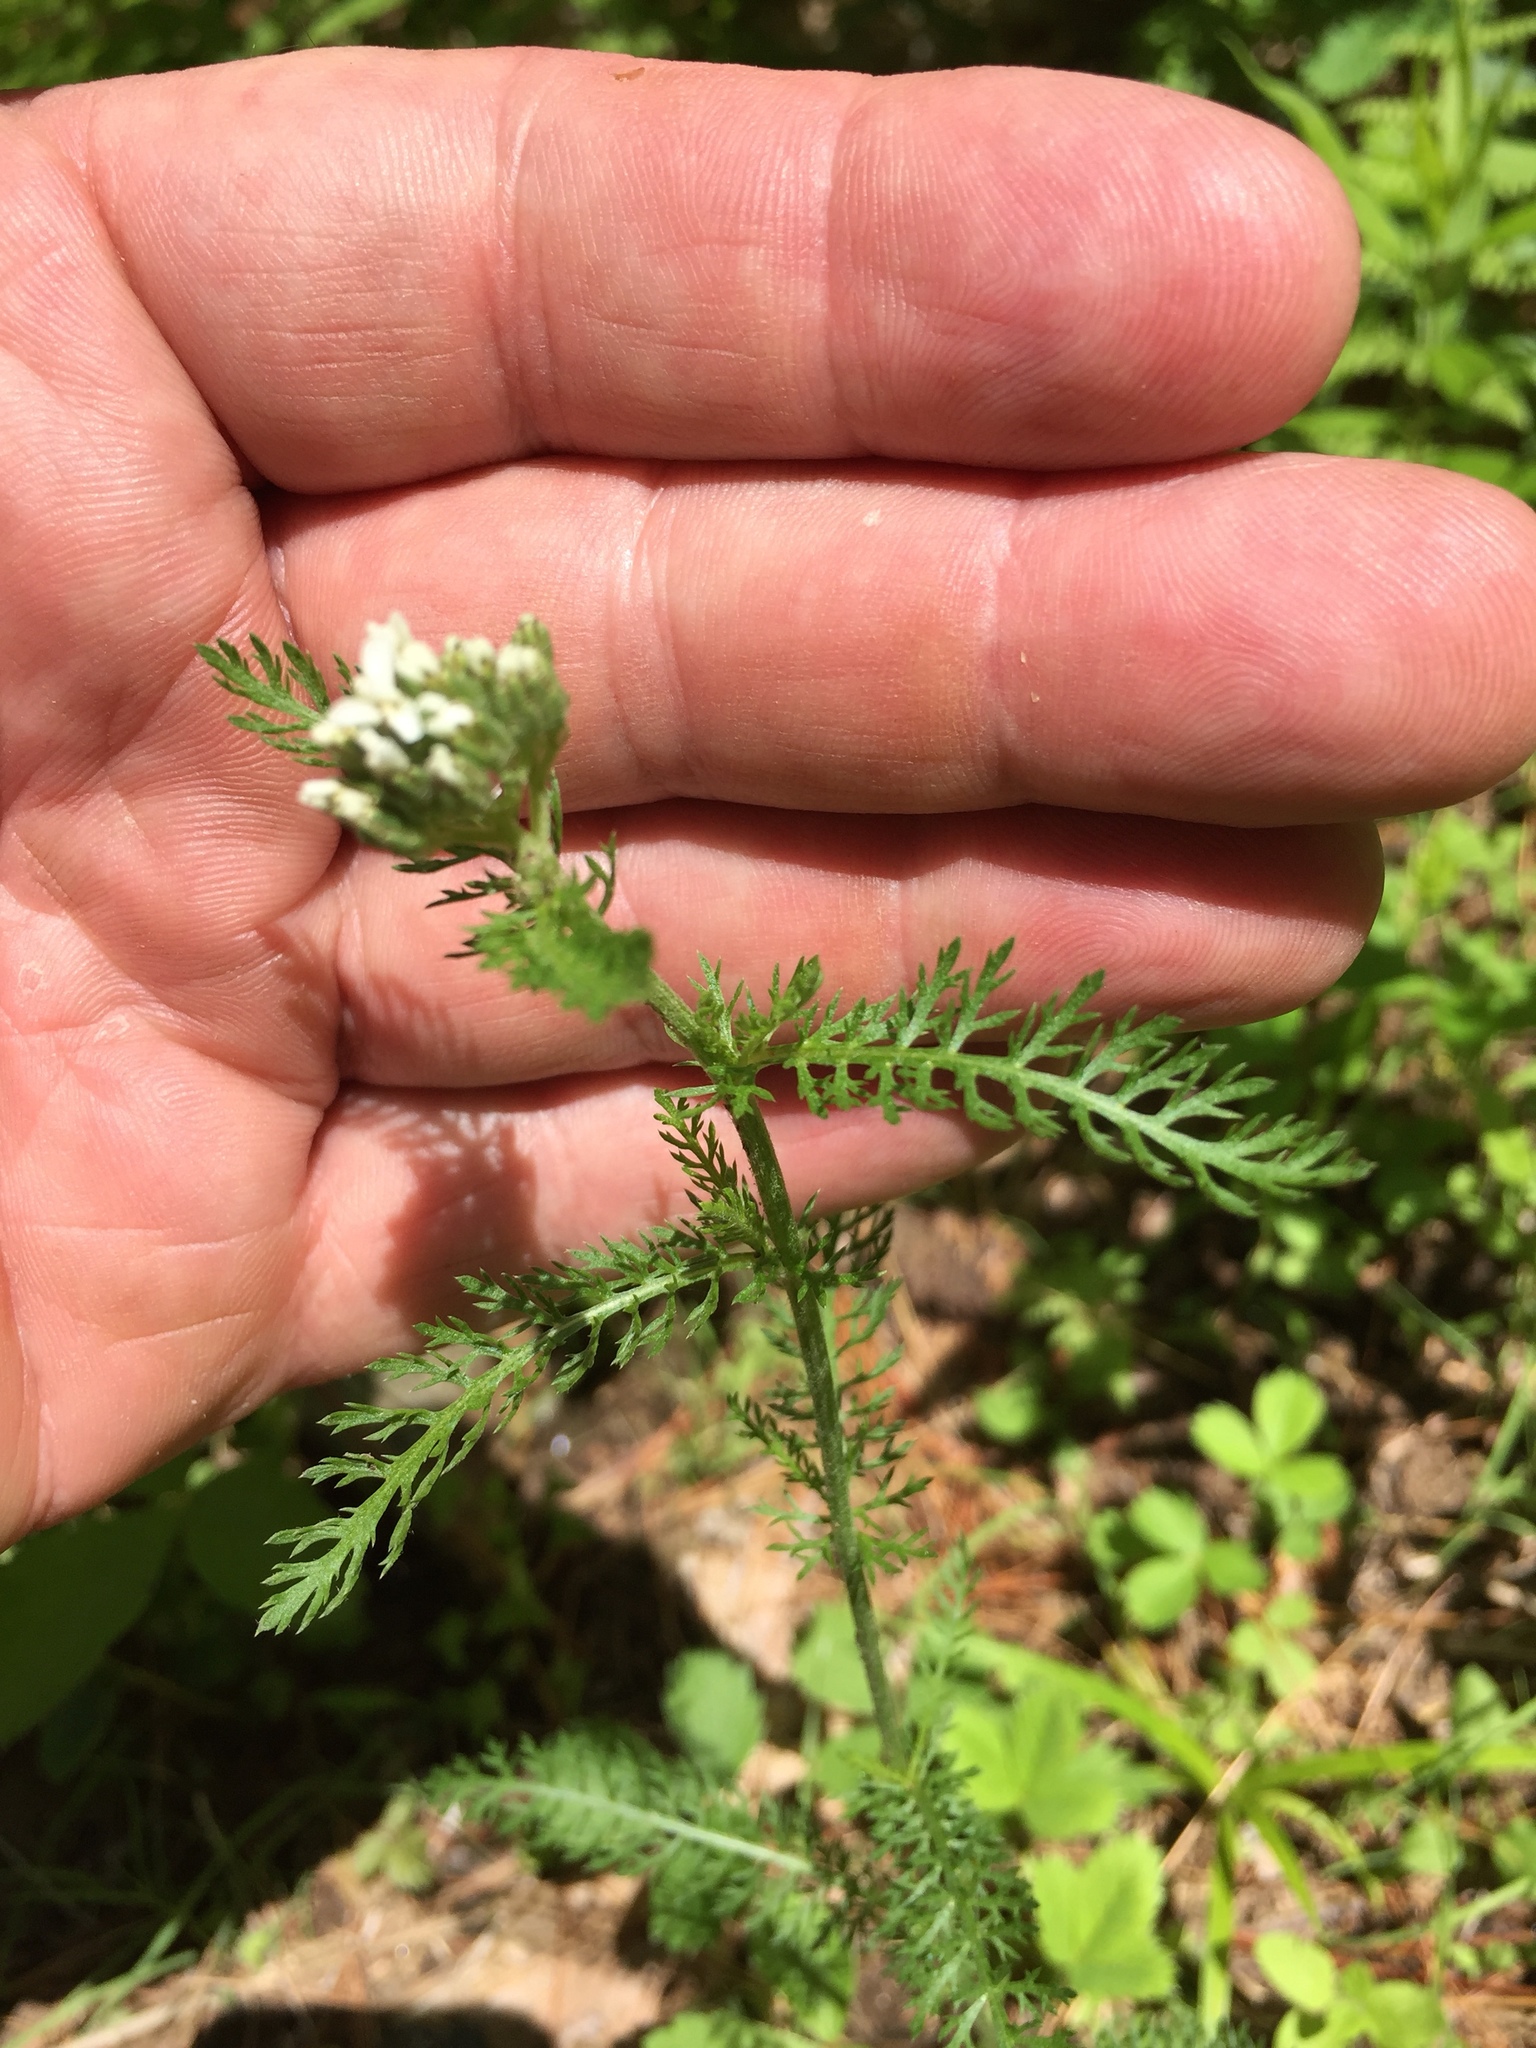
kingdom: Plantae
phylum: Tracheophyta
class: Magnoliopsida
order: Asterales
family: Asteraceae
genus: Achillea
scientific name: Achillea millefolium
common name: Yarrow
